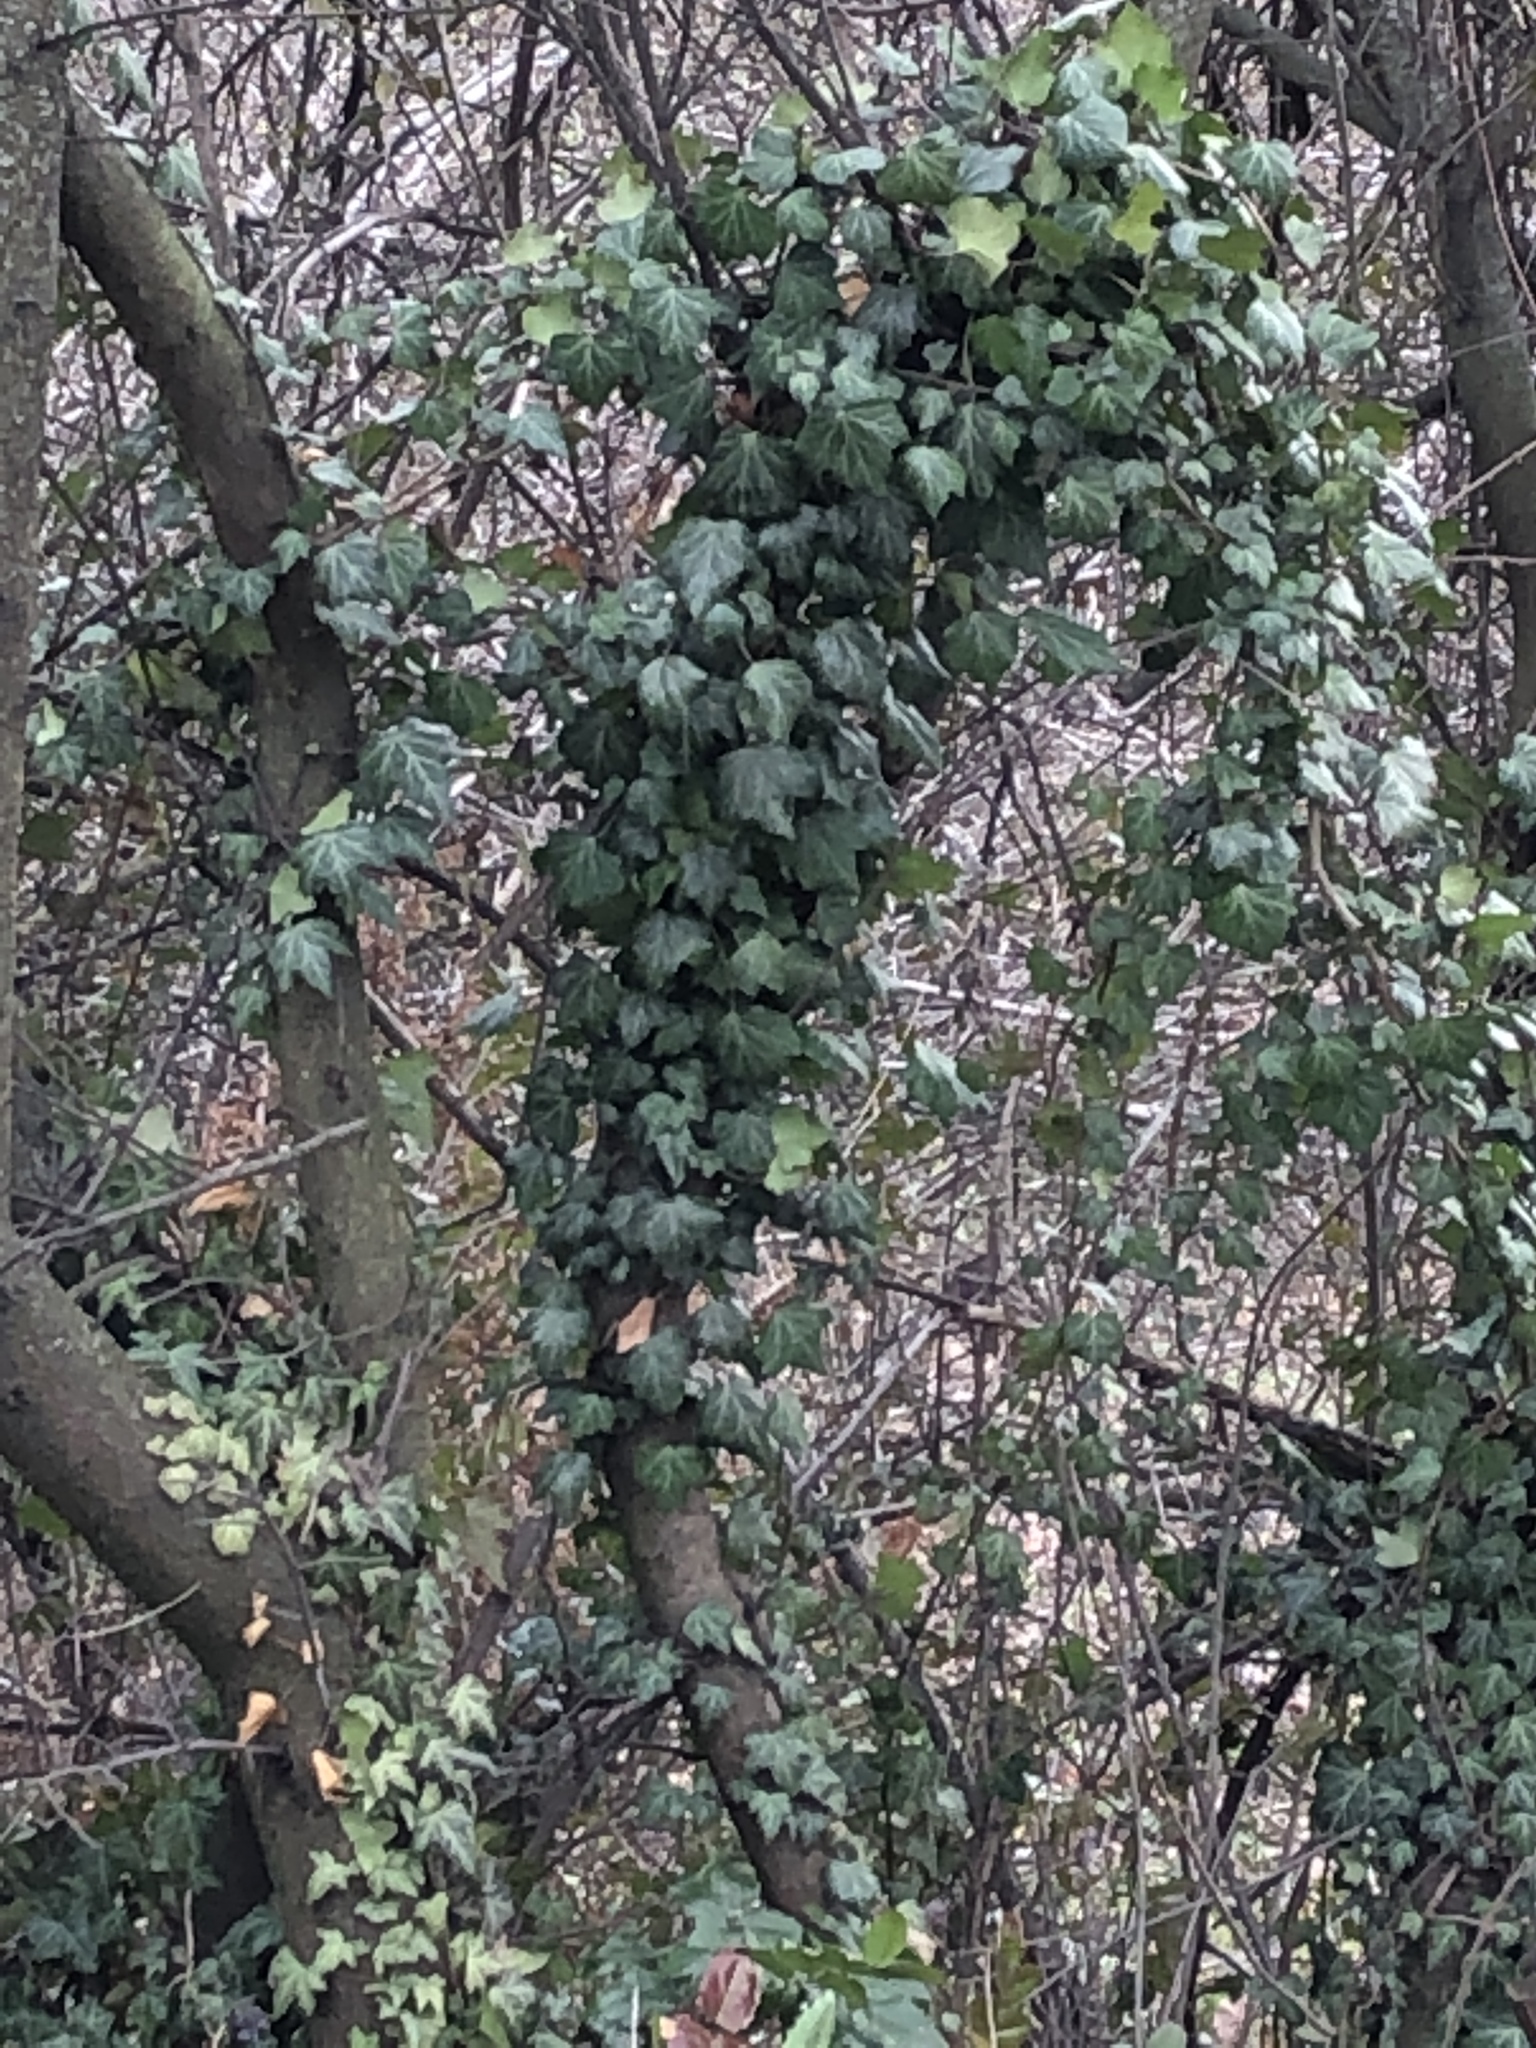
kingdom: Plantae
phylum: Tracheophyta
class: Magnoliopsida
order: Apiales
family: Araliaceae
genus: Hedera
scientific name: Hedera helix
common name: Ivy
